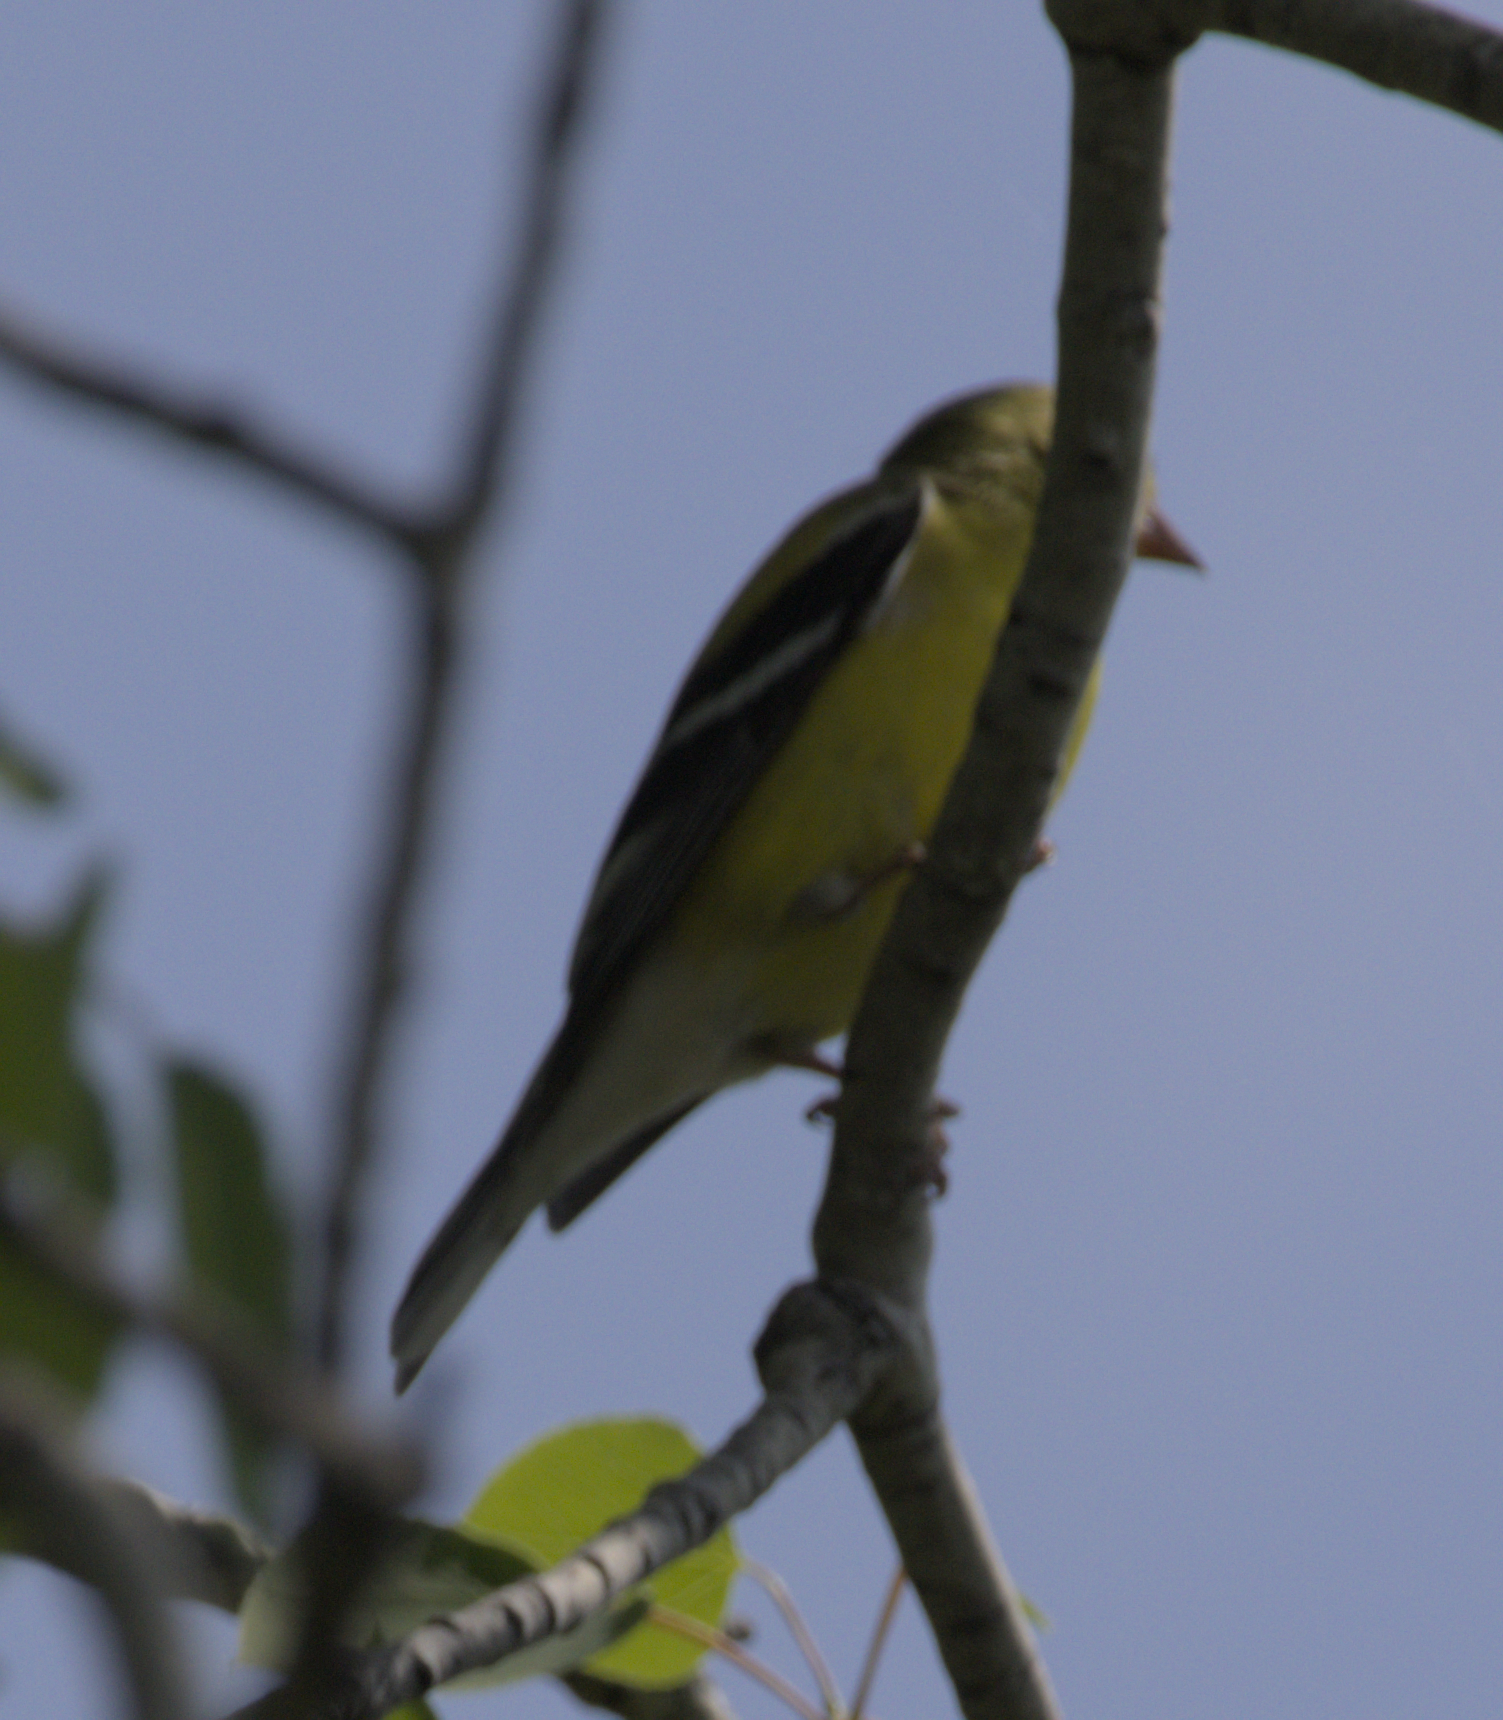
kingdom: Animalia
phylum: Chordata
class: Aves
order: Passeriformes
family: Fringillidae
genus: Spinus
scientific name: Spinus tristis
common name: American goldfinch
